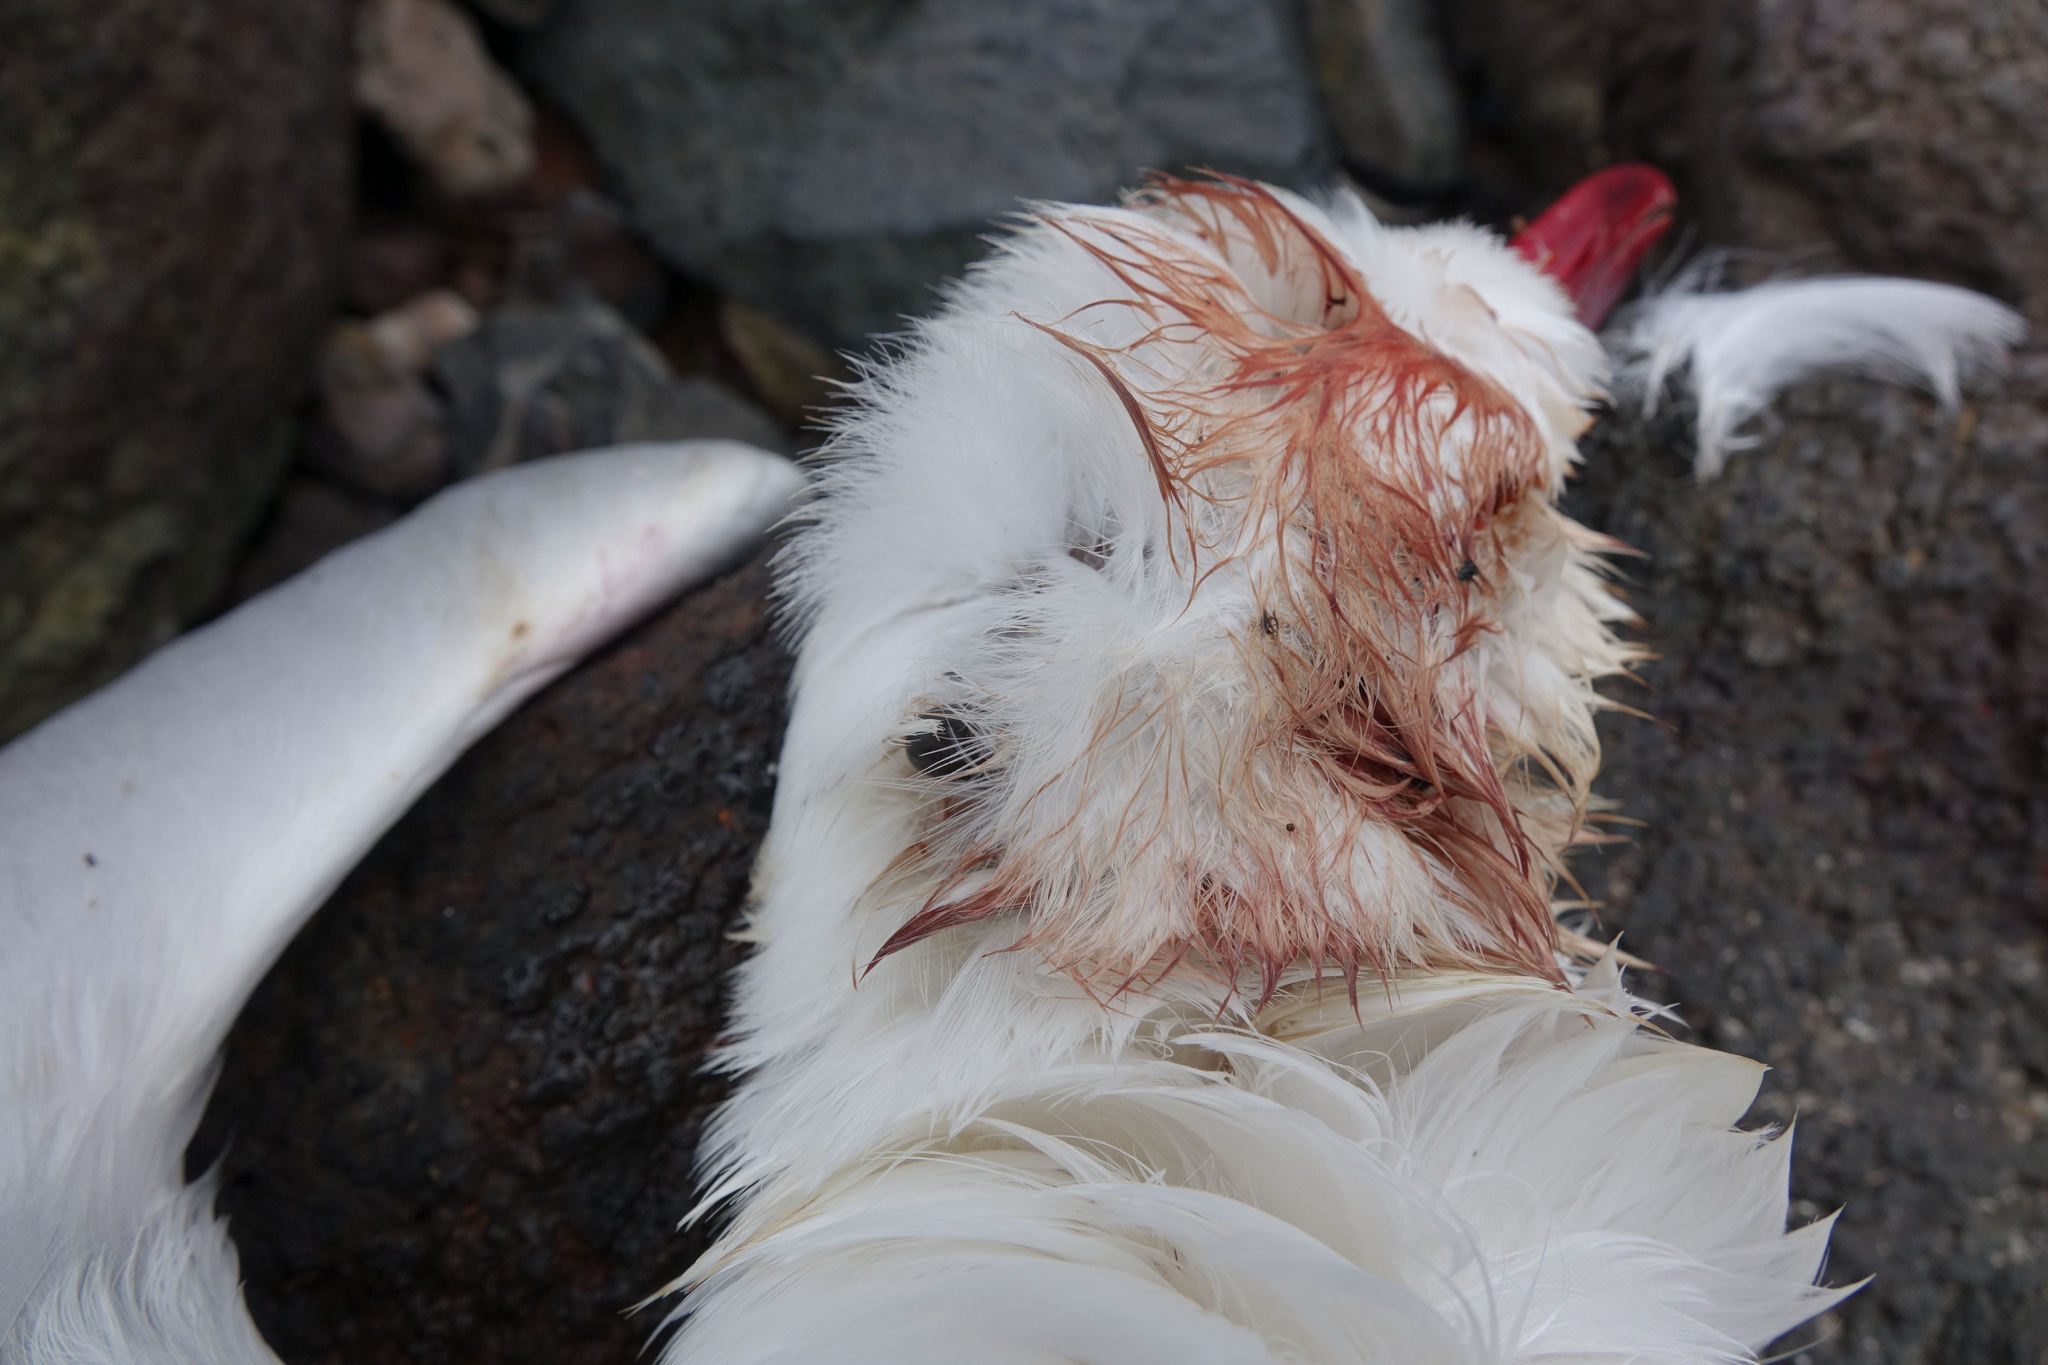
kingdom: Animalia
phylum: Chordata
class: Aves
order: Charadriiformes
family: Laridae
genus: Chroicocephalus
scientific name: Chroicocephalus novaehollandiae
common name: Silver gull
